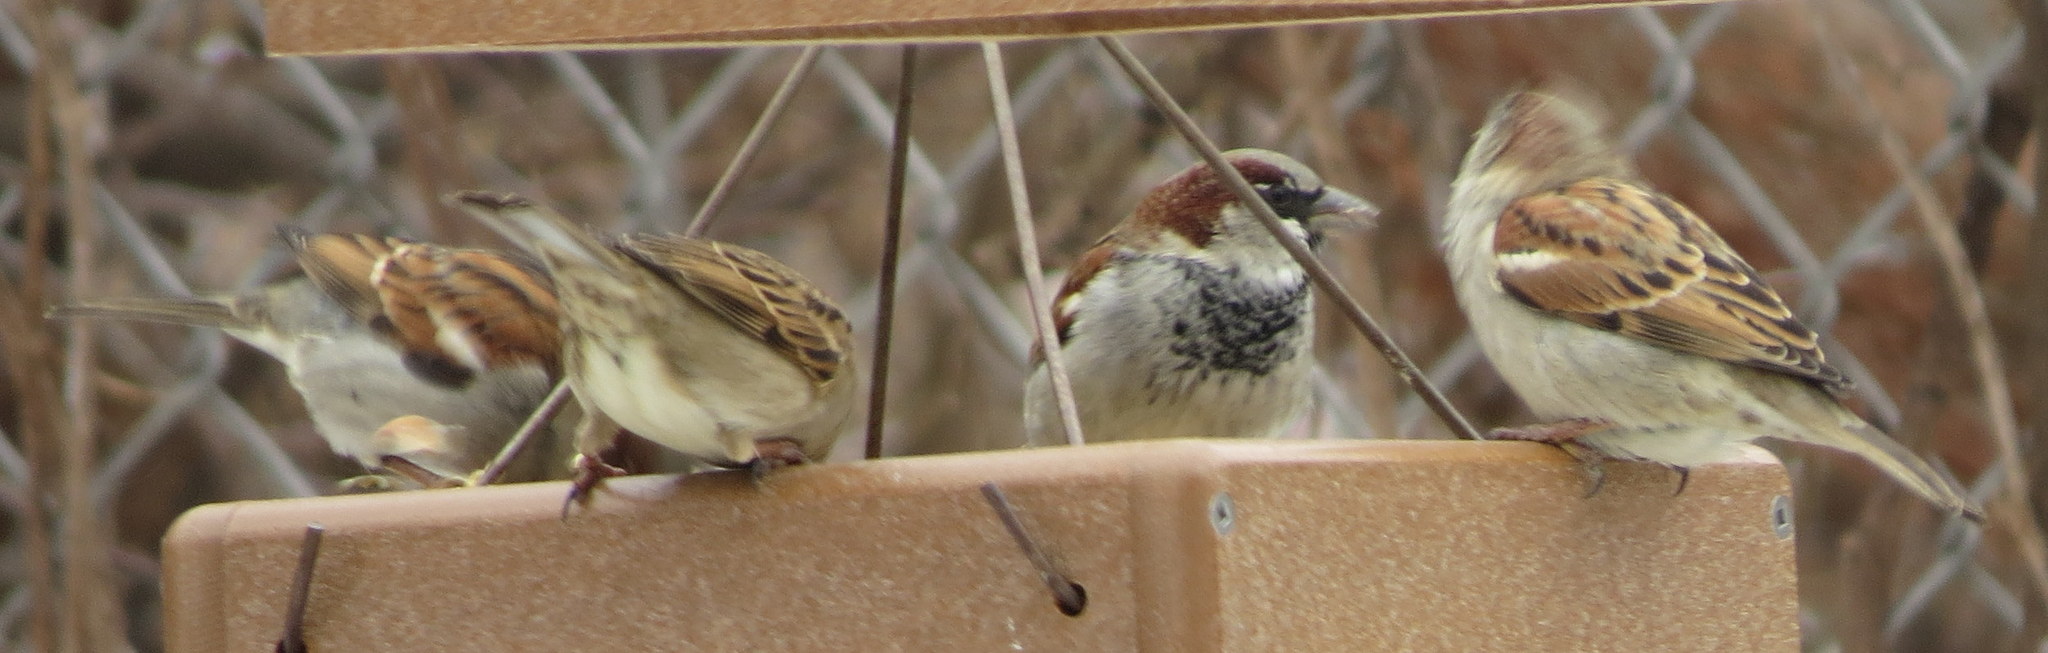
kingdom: Animalia
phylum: Chordata
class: Aves
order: Passeriformes
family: Passeridae
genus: Passer
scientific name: Passer domesticus
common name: House sparrow
